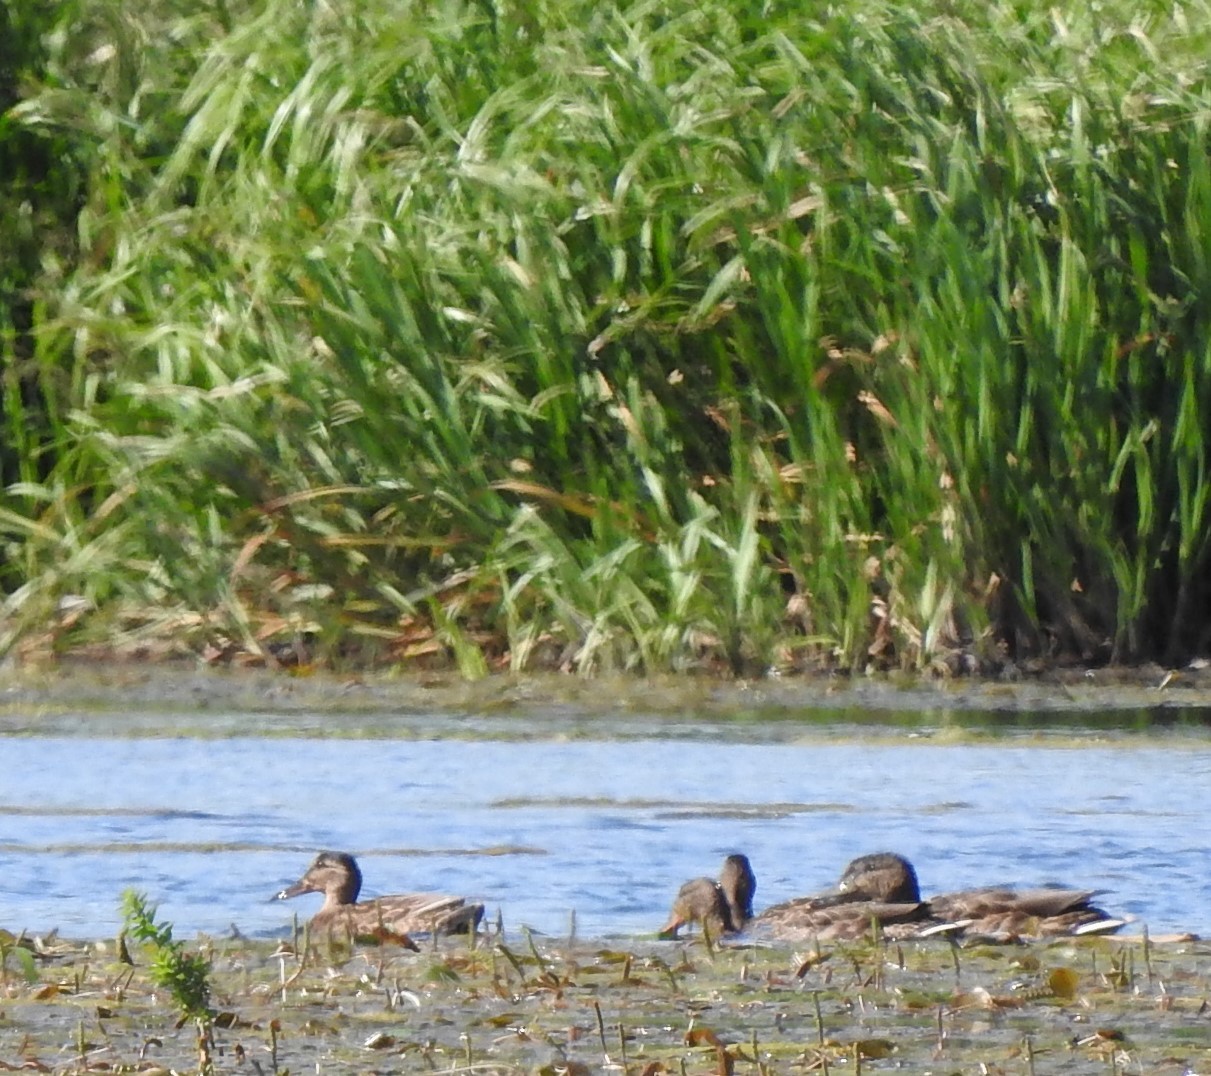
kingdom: Animalia
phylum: Chordata
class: Aves
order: Anseriformes
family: Anatidae
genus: Spatula
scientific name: Spatula clypeata
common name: Northern shoveler
